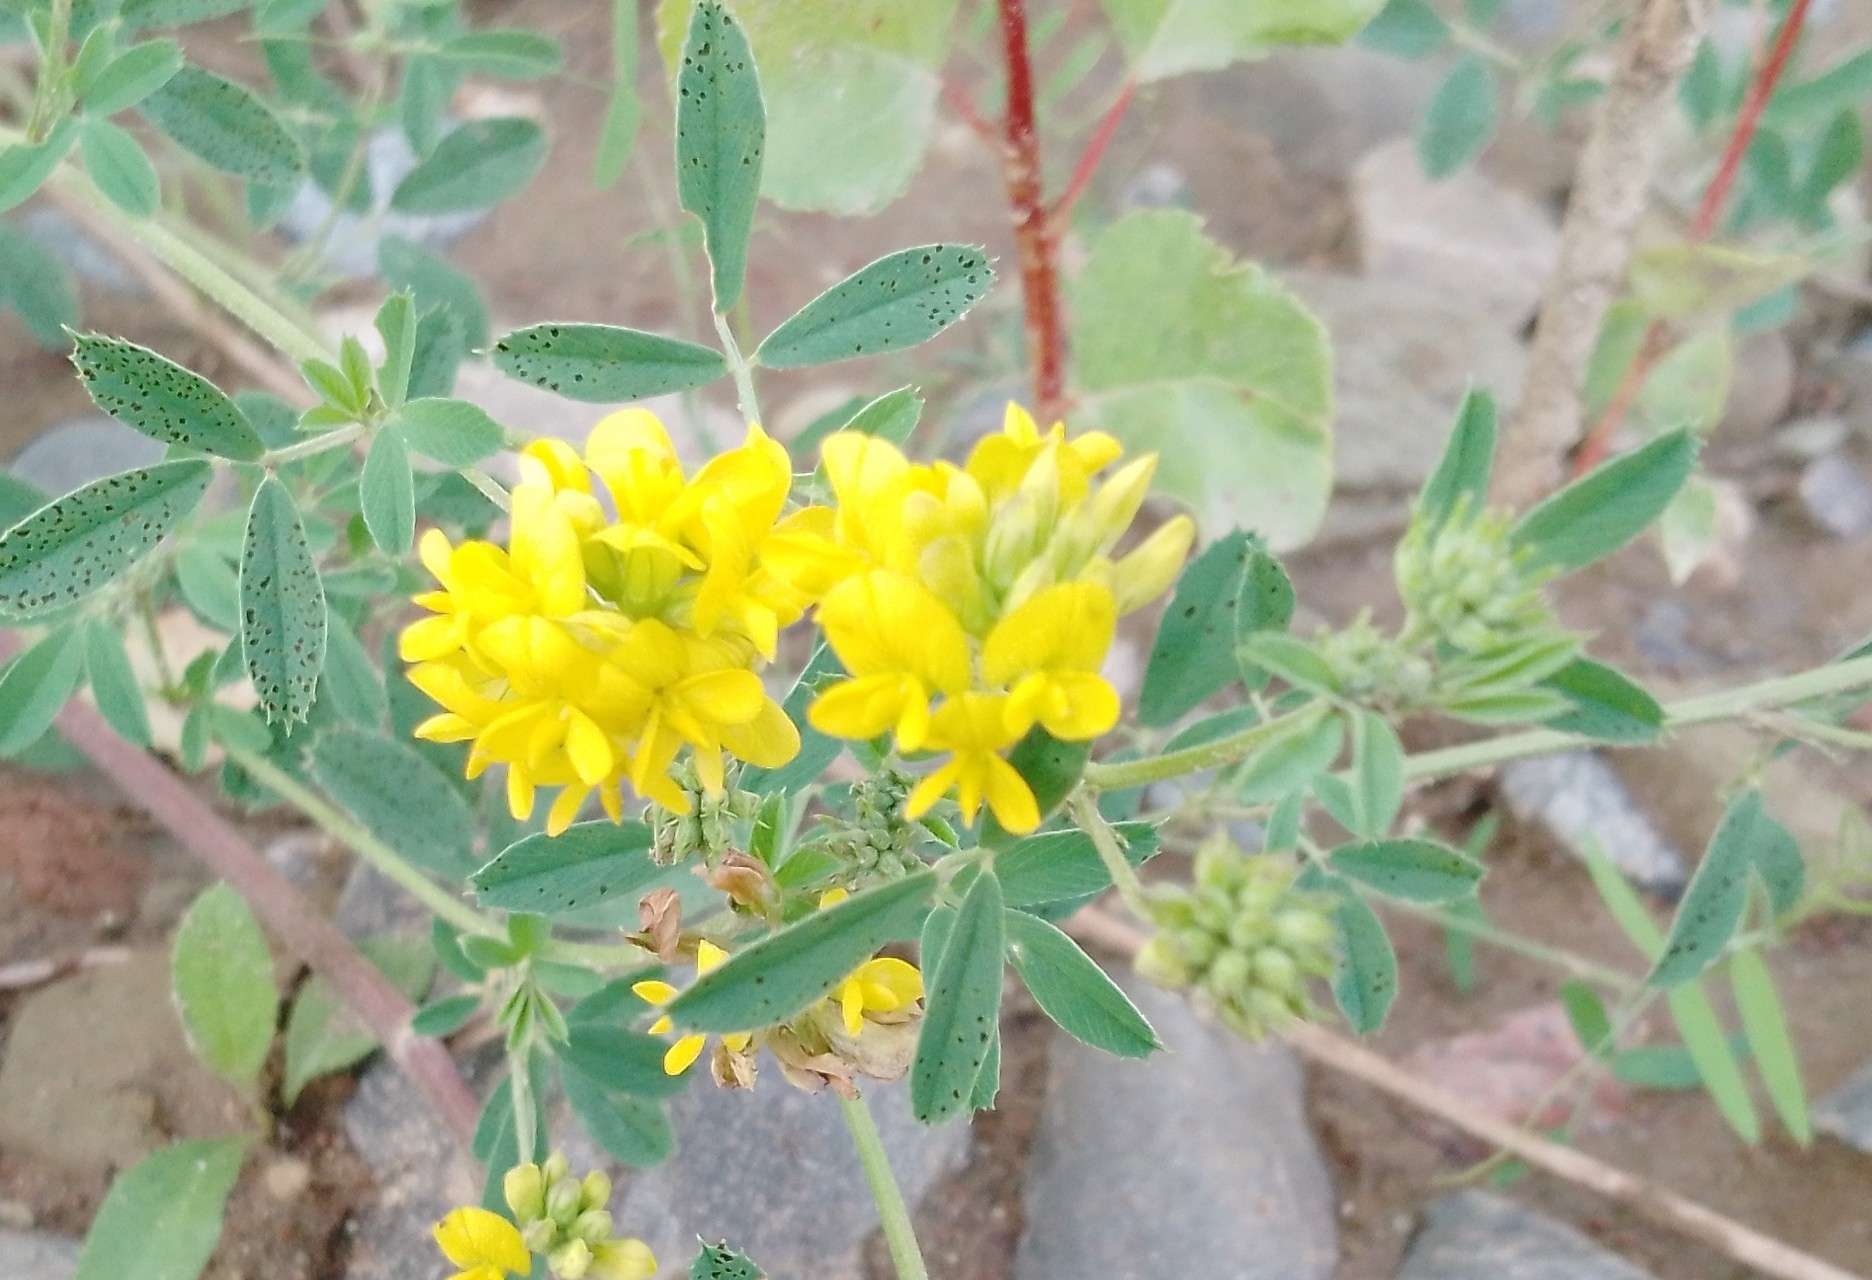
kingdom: Plantae
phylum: Tracheophyta
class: Magnoliopsida
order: Fabales
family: Fabaceae
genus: Medicago
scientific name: Medicago falcata
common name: Sickle medick
